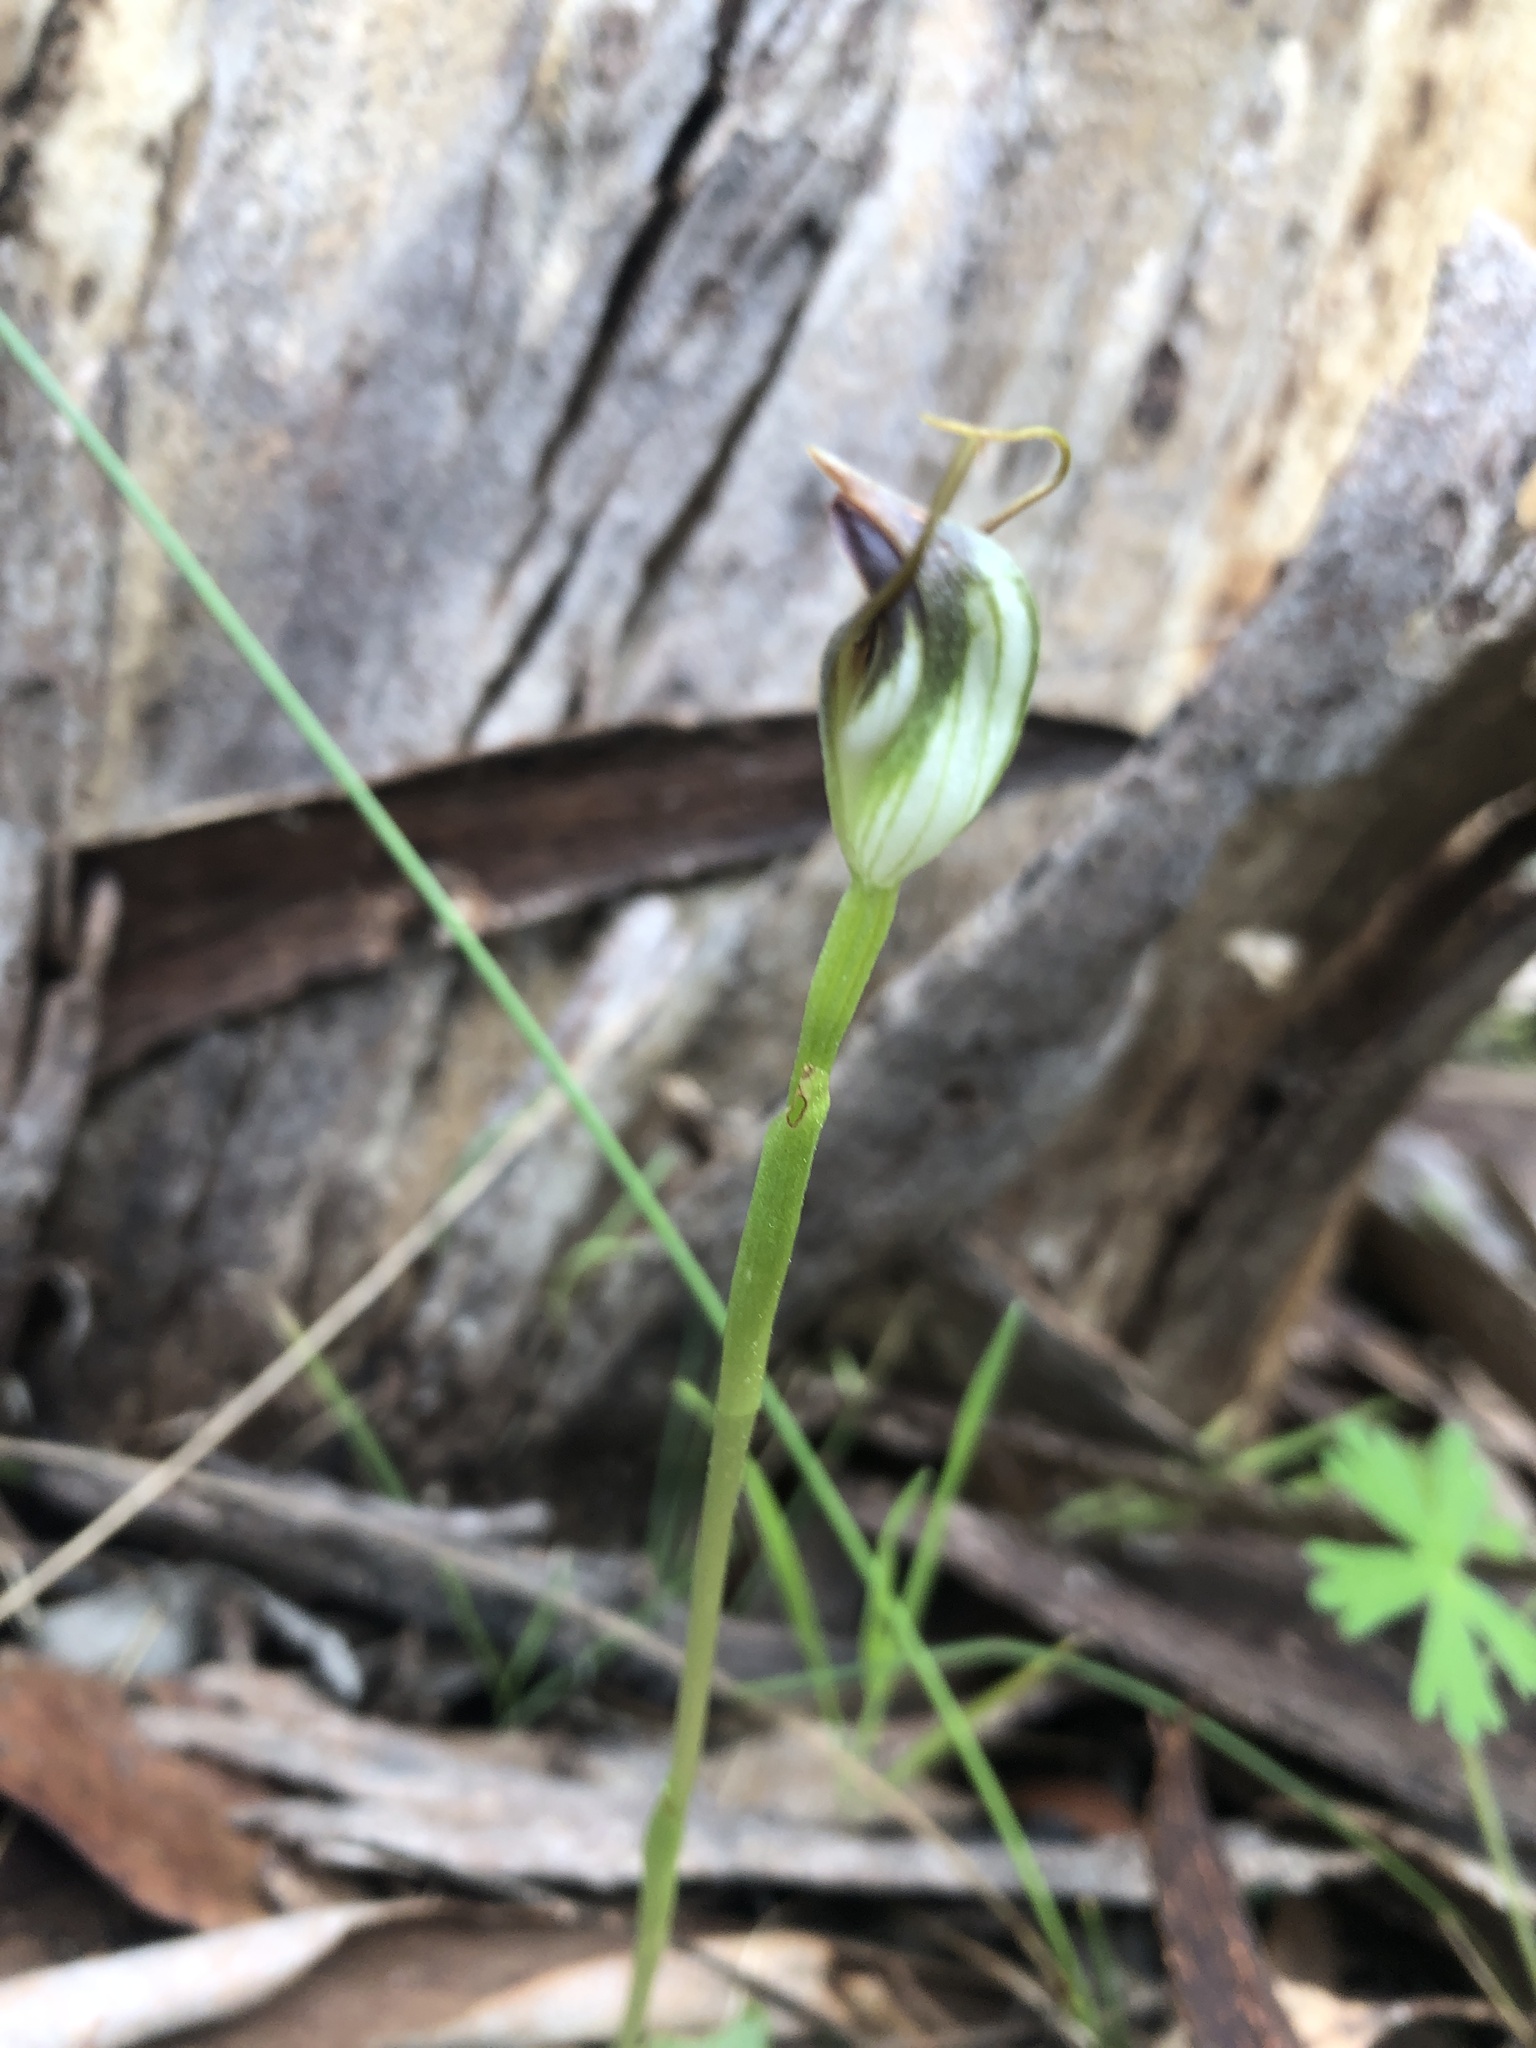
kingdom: Plantae
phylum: Tracheophyta
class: Liliopsida
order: Asparagales
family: Orchidaceae
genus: Pterostylis
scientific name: Pterostylis pedunculata
